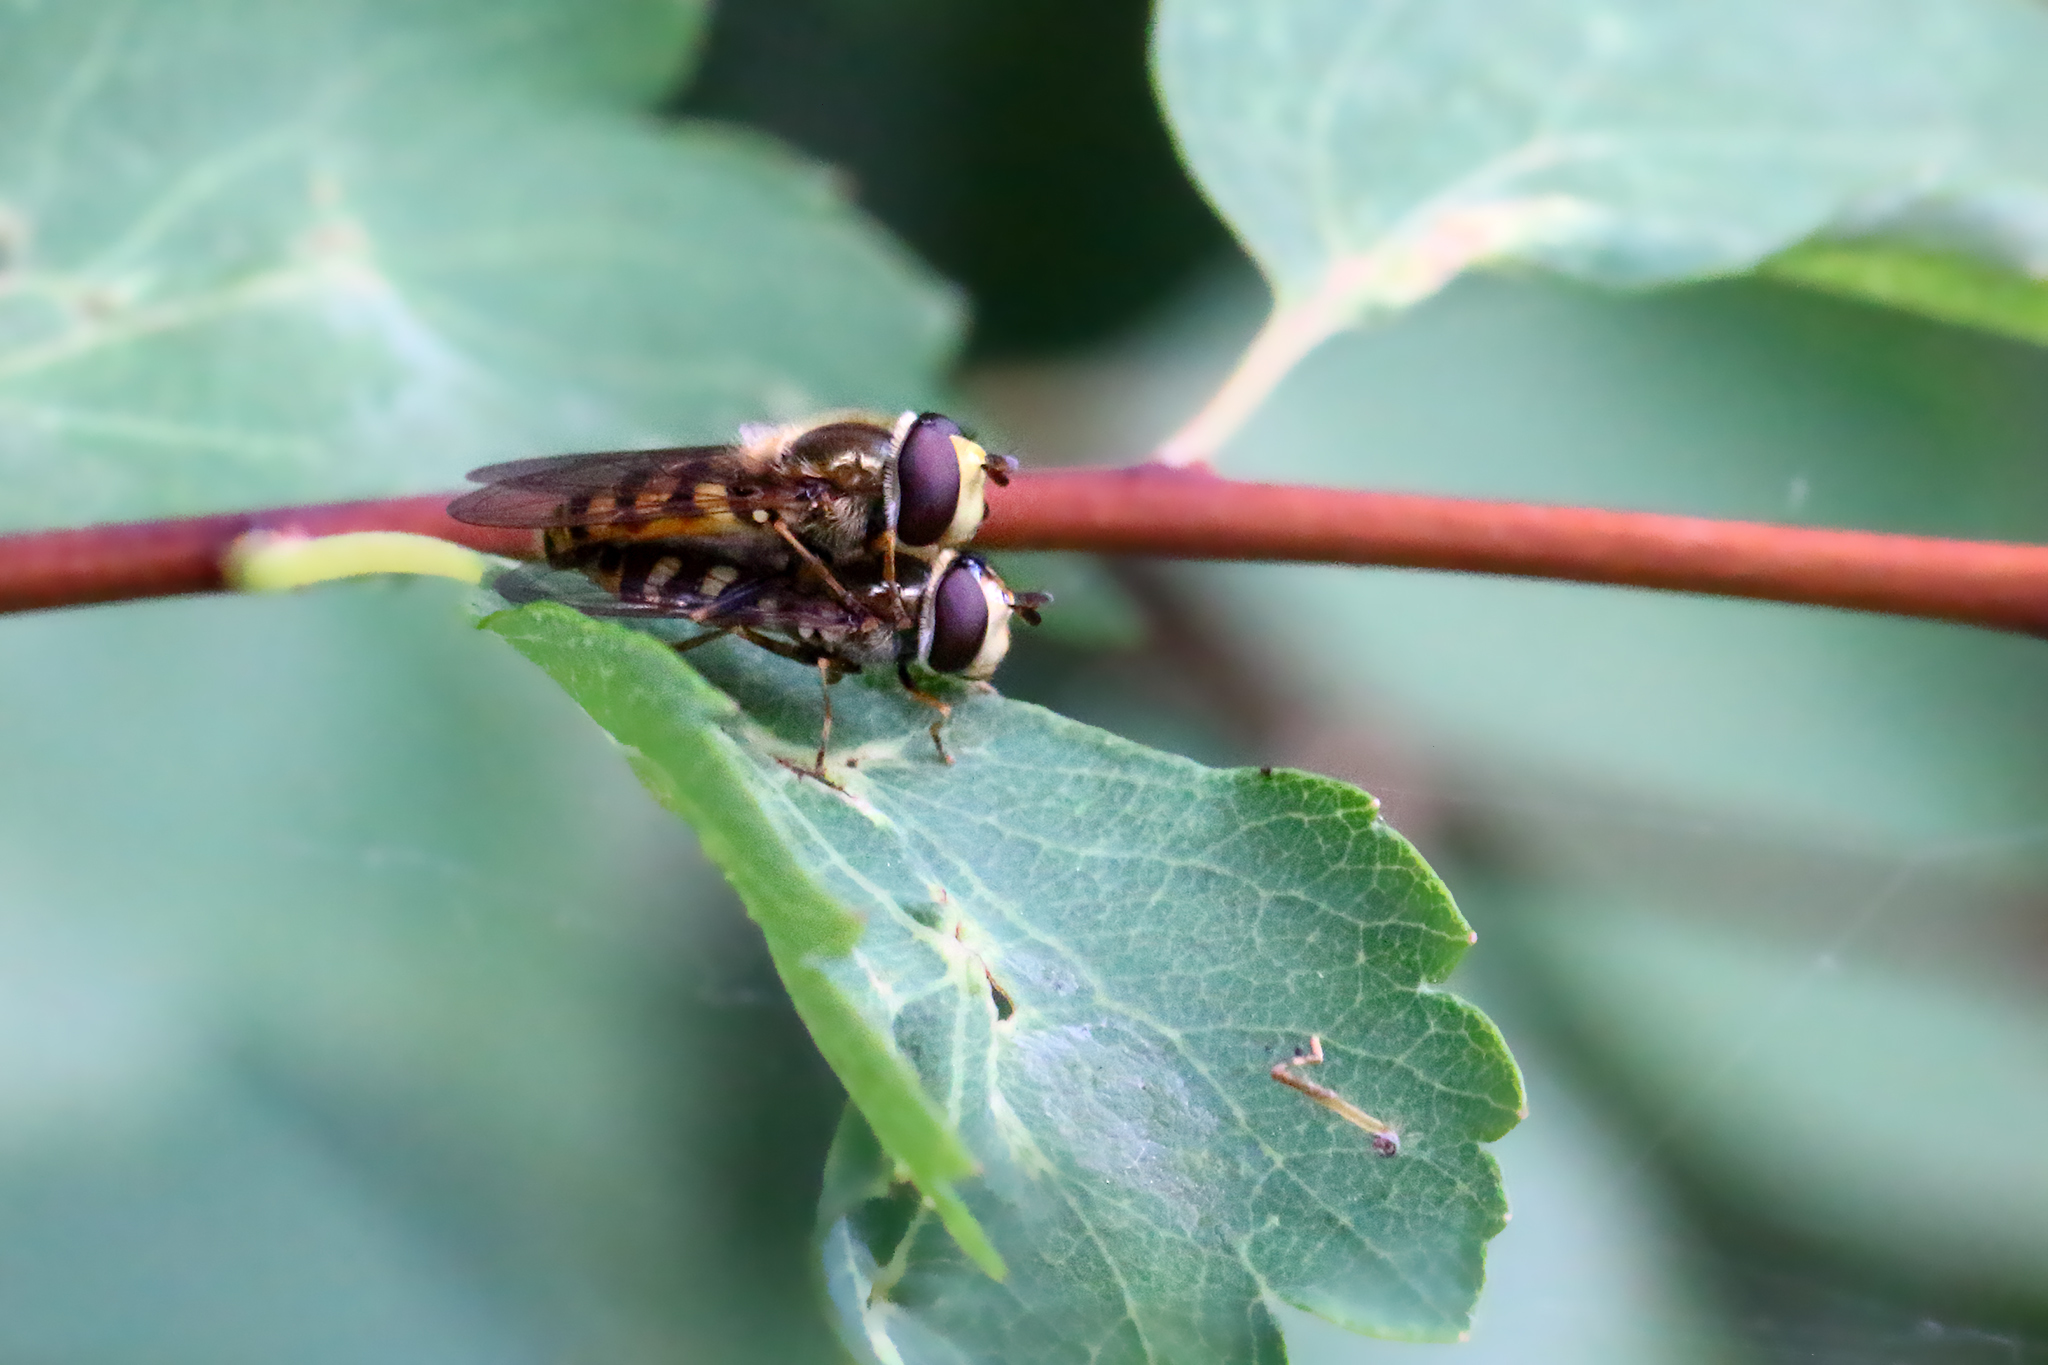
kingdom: Animalia
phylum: Arthropoda
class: Insecta
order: Diptera
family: Syrphidae
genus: Eupeodes
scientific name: Eupeodes corollae
